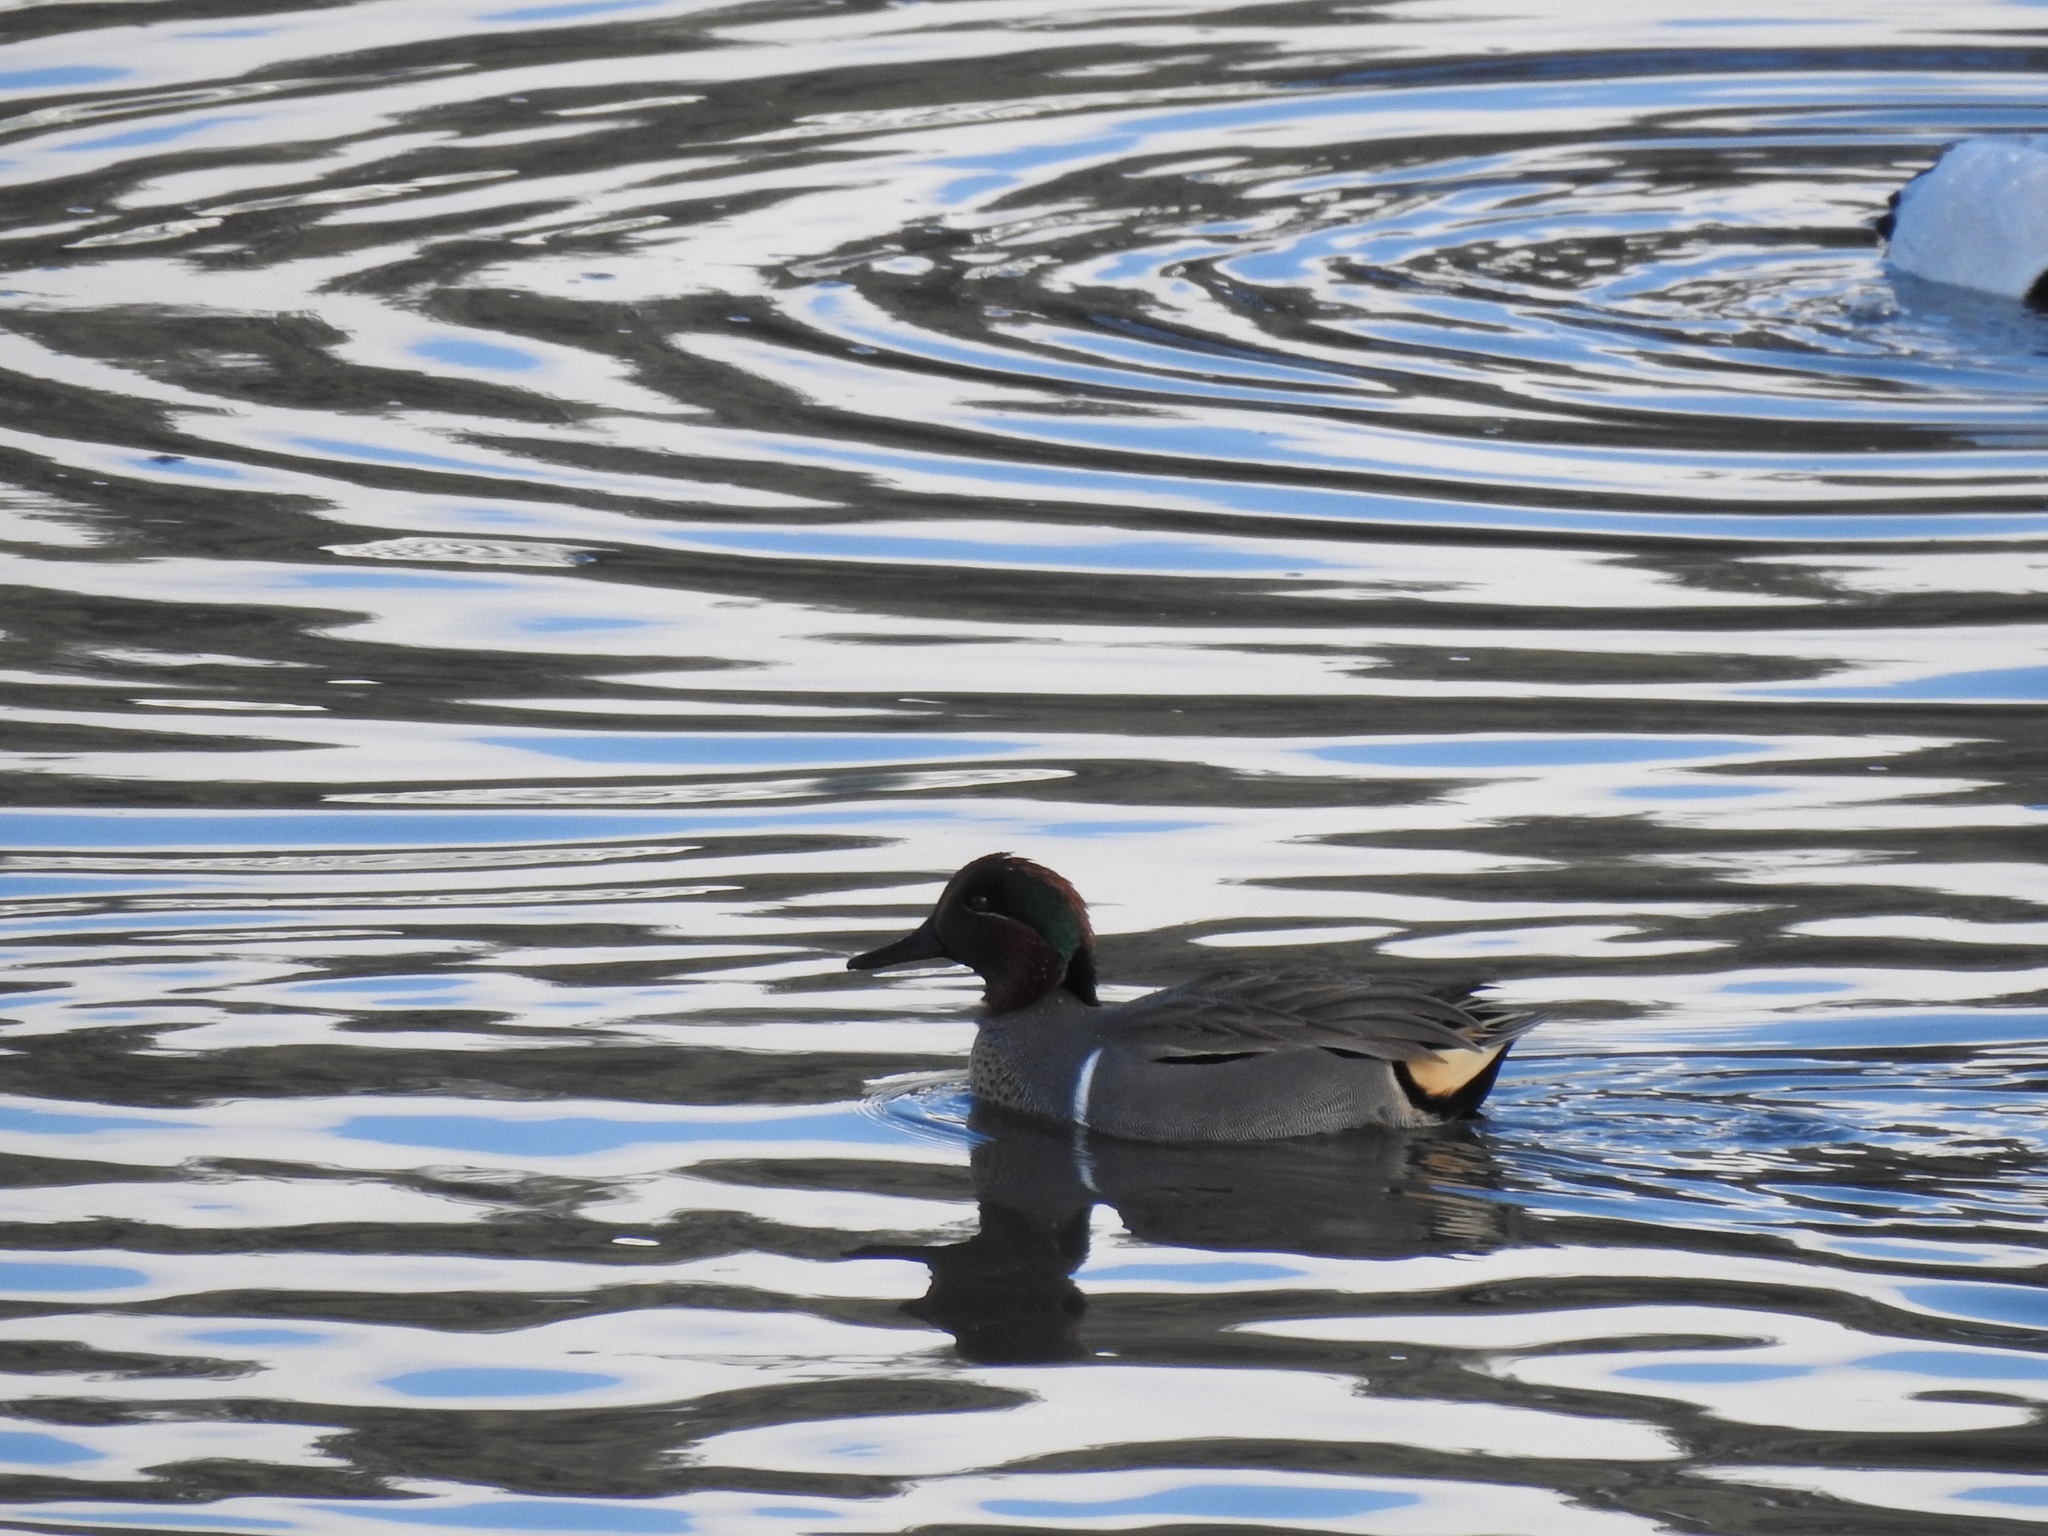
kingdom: Animalia
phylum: Chordata
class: Aves
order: Anseriformes
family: Anatidae
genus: Anas
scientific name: Anas crecca
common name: Eurasian teal
